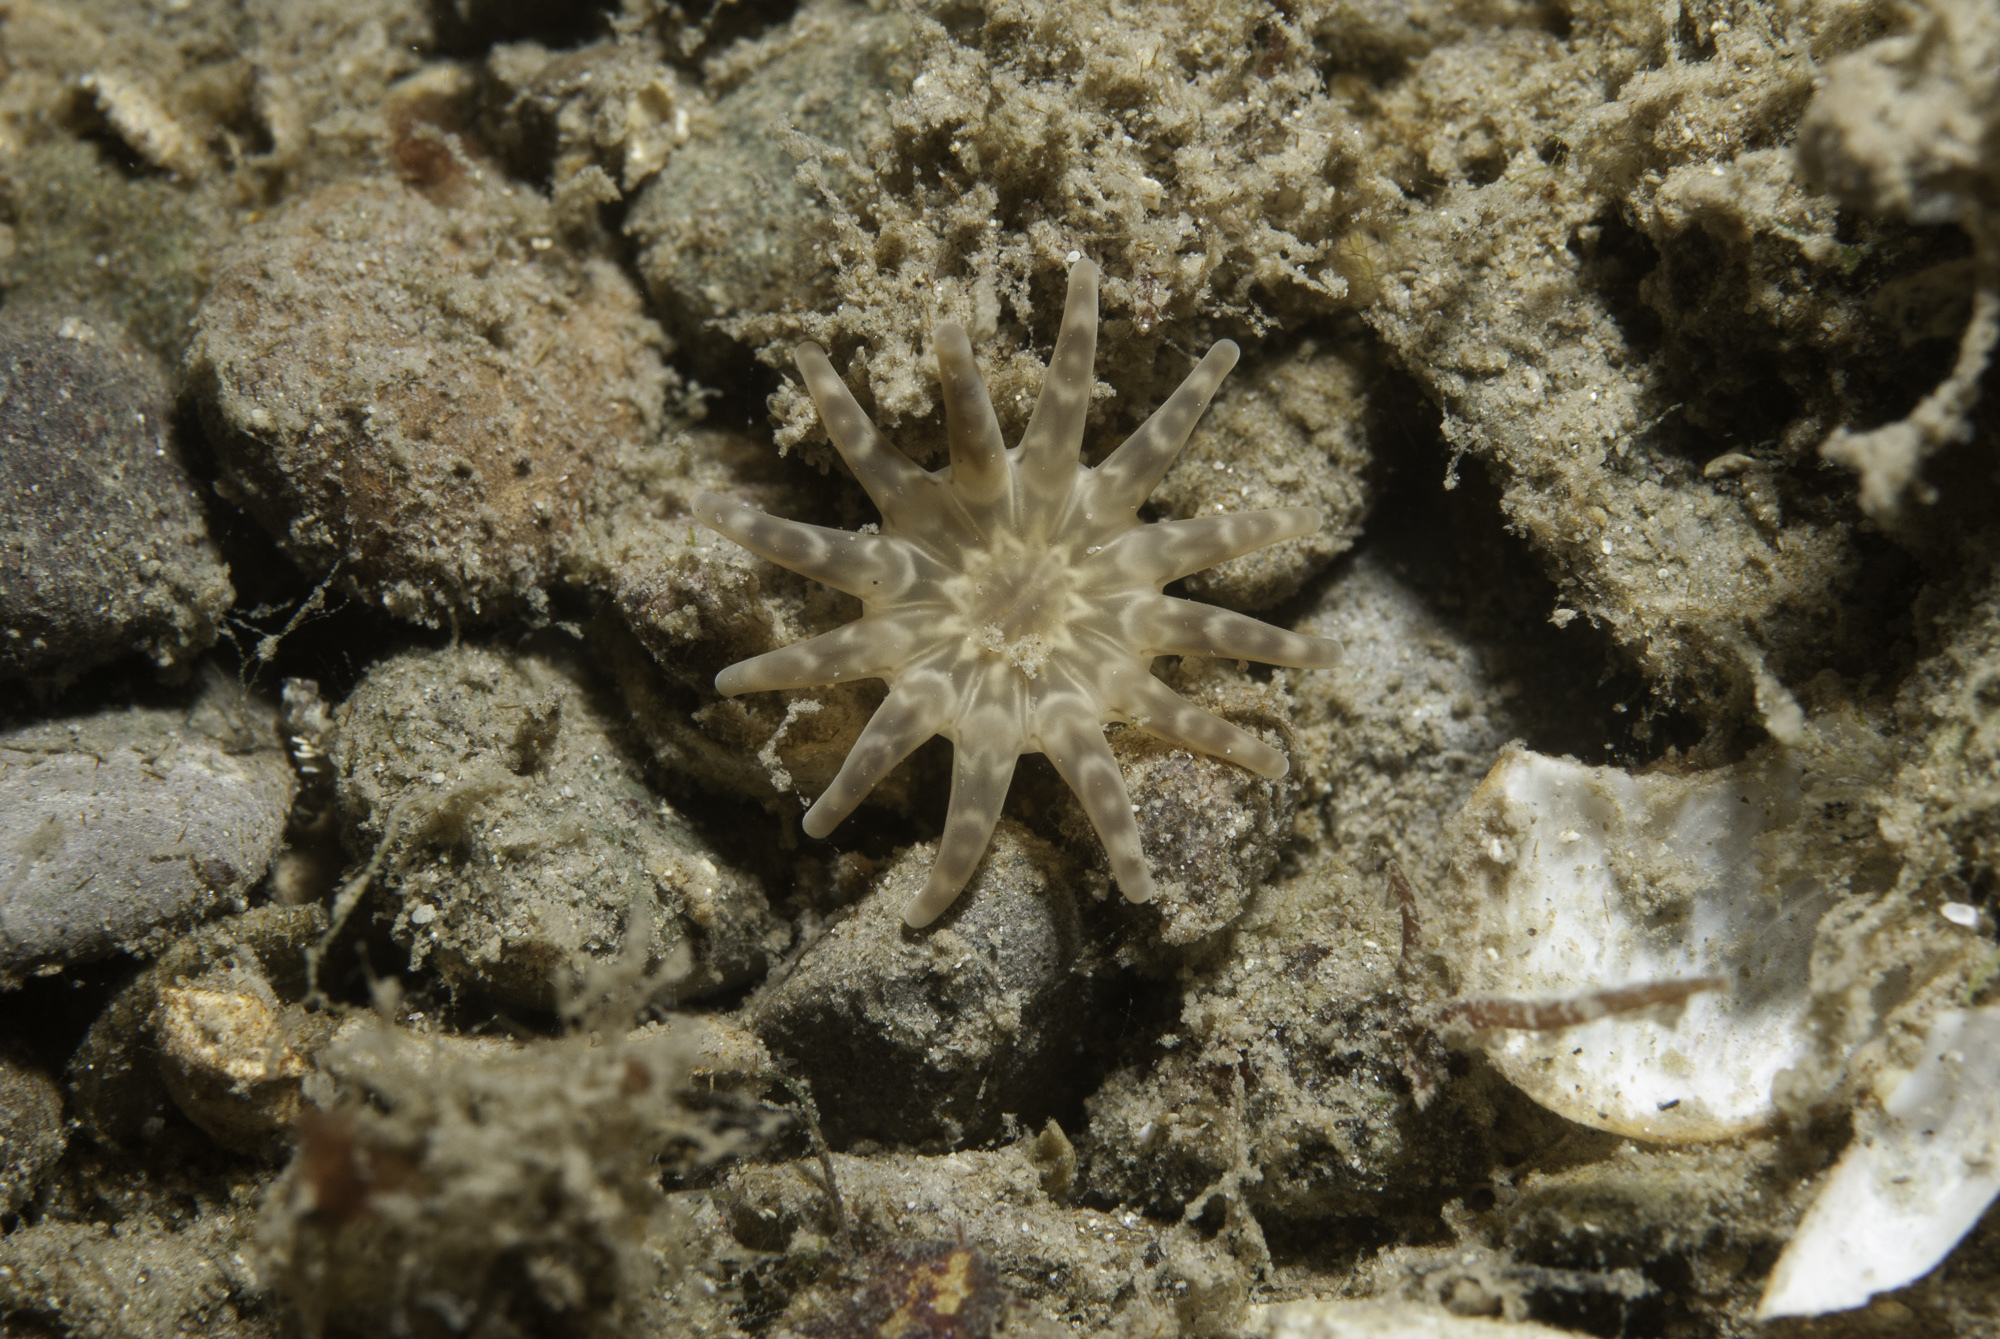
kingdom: Animalia
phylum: Cnidaria
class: Anthozoa
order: Actiniaria
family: Halcampidae
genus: Halcampa
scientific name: Halcampa chrysanthellum
